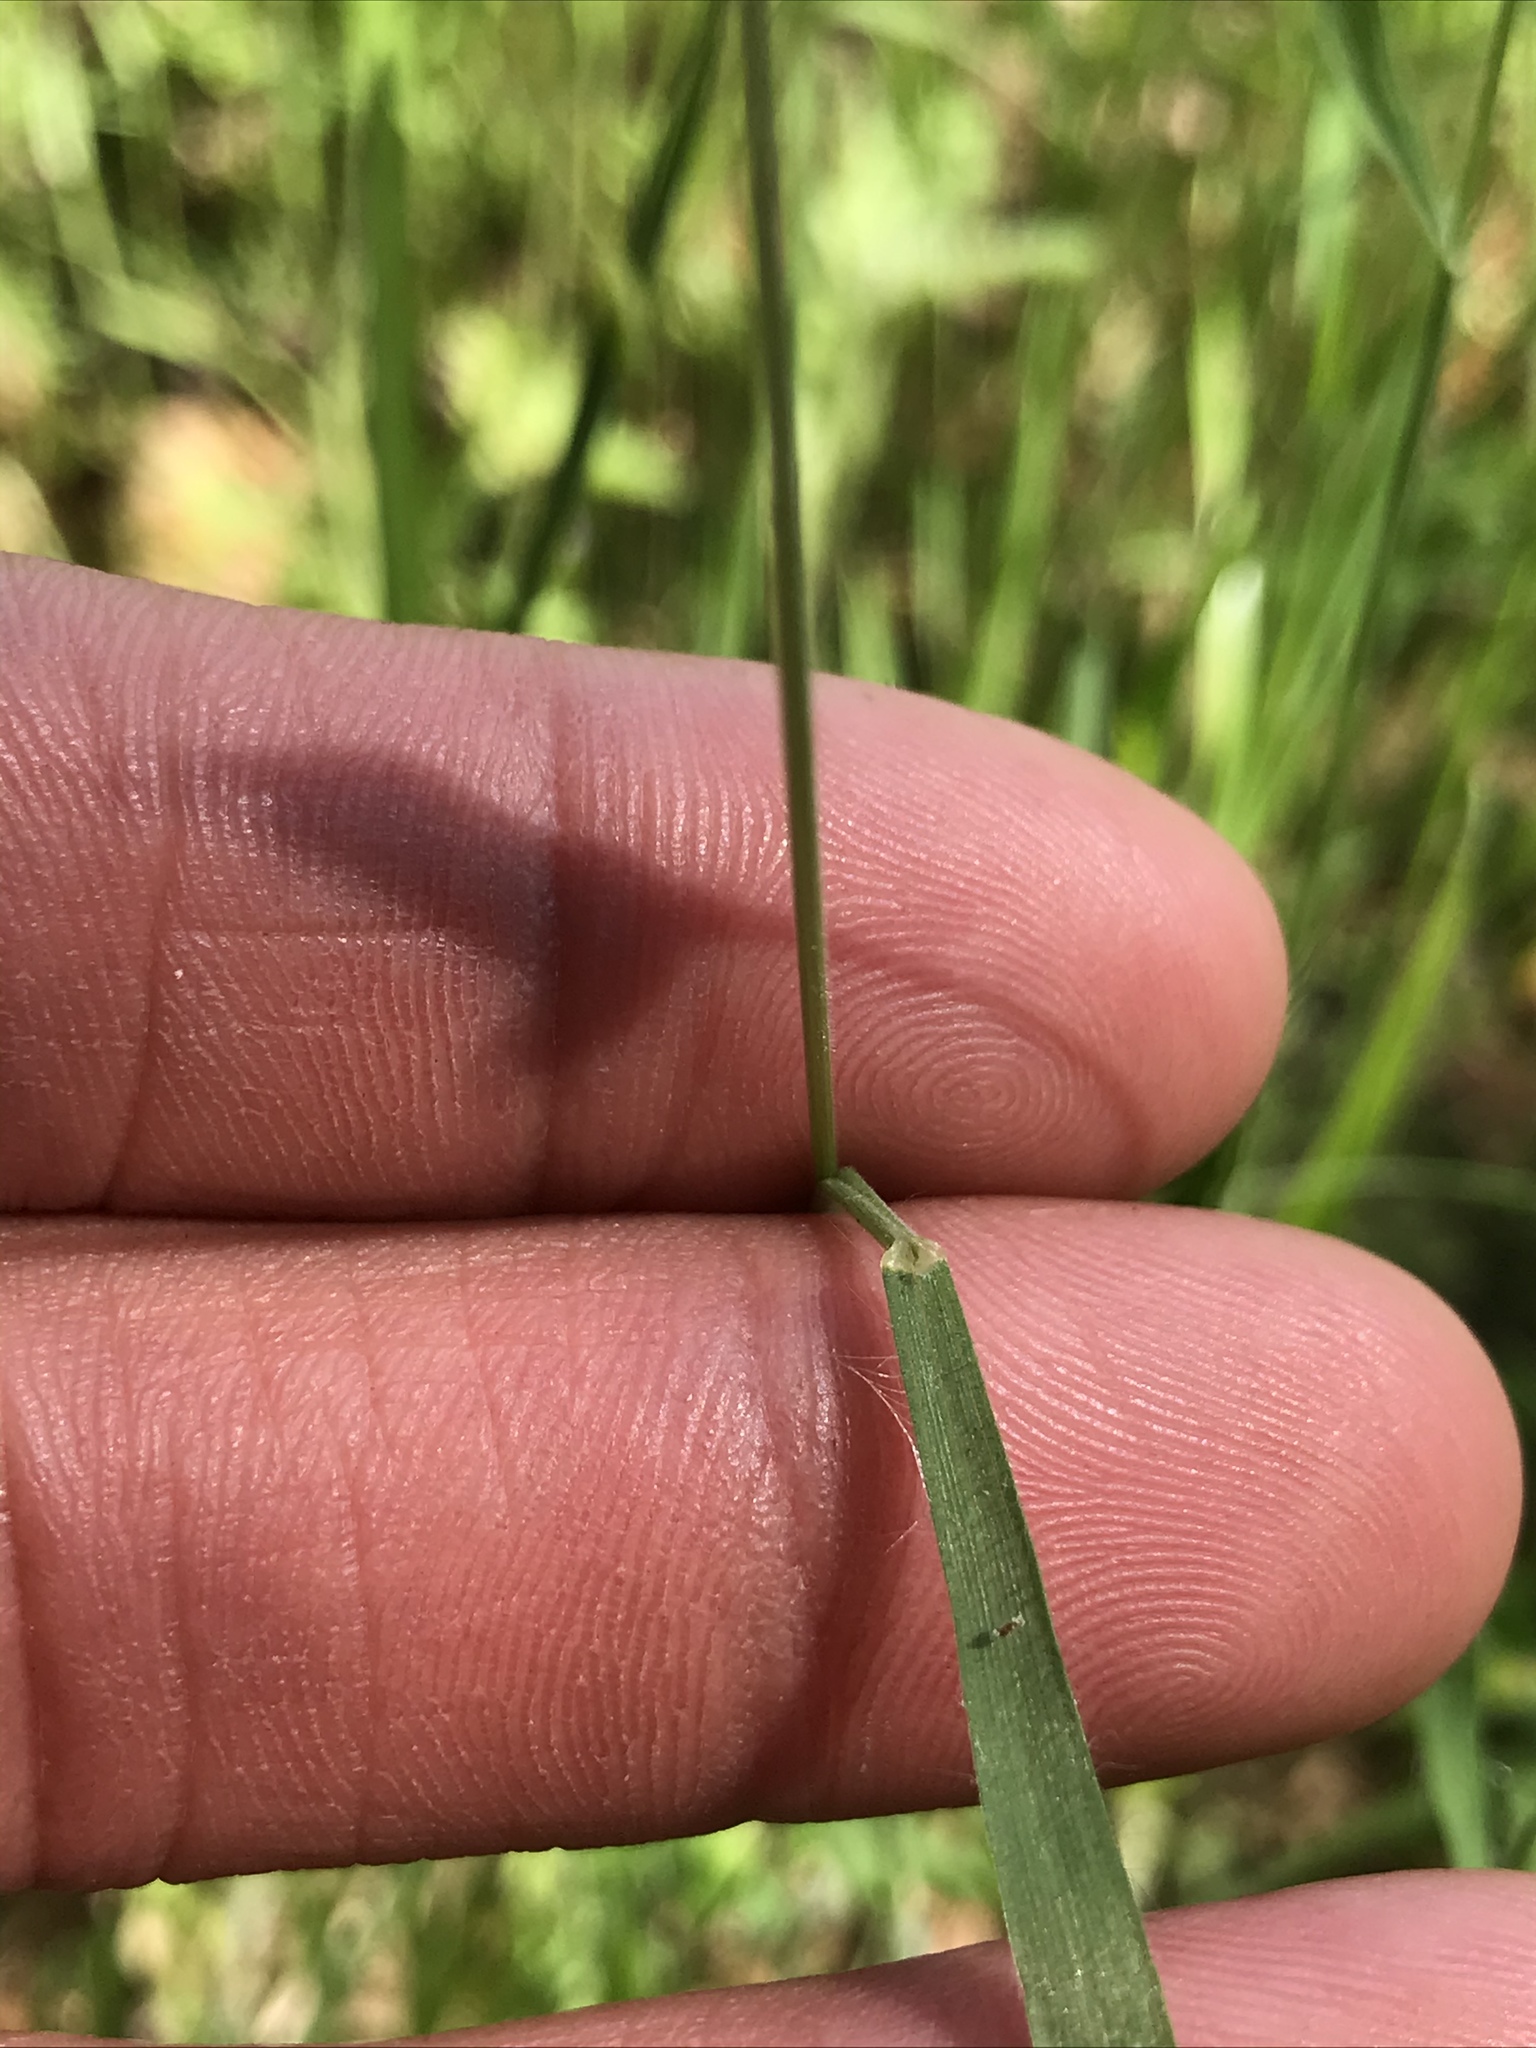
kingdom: Plantae
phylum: Tracheophyta
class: Liliopsida
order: Poales
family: Poaceae
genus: Bromus
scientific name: Bromus hordeaceus
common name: Soft brome
